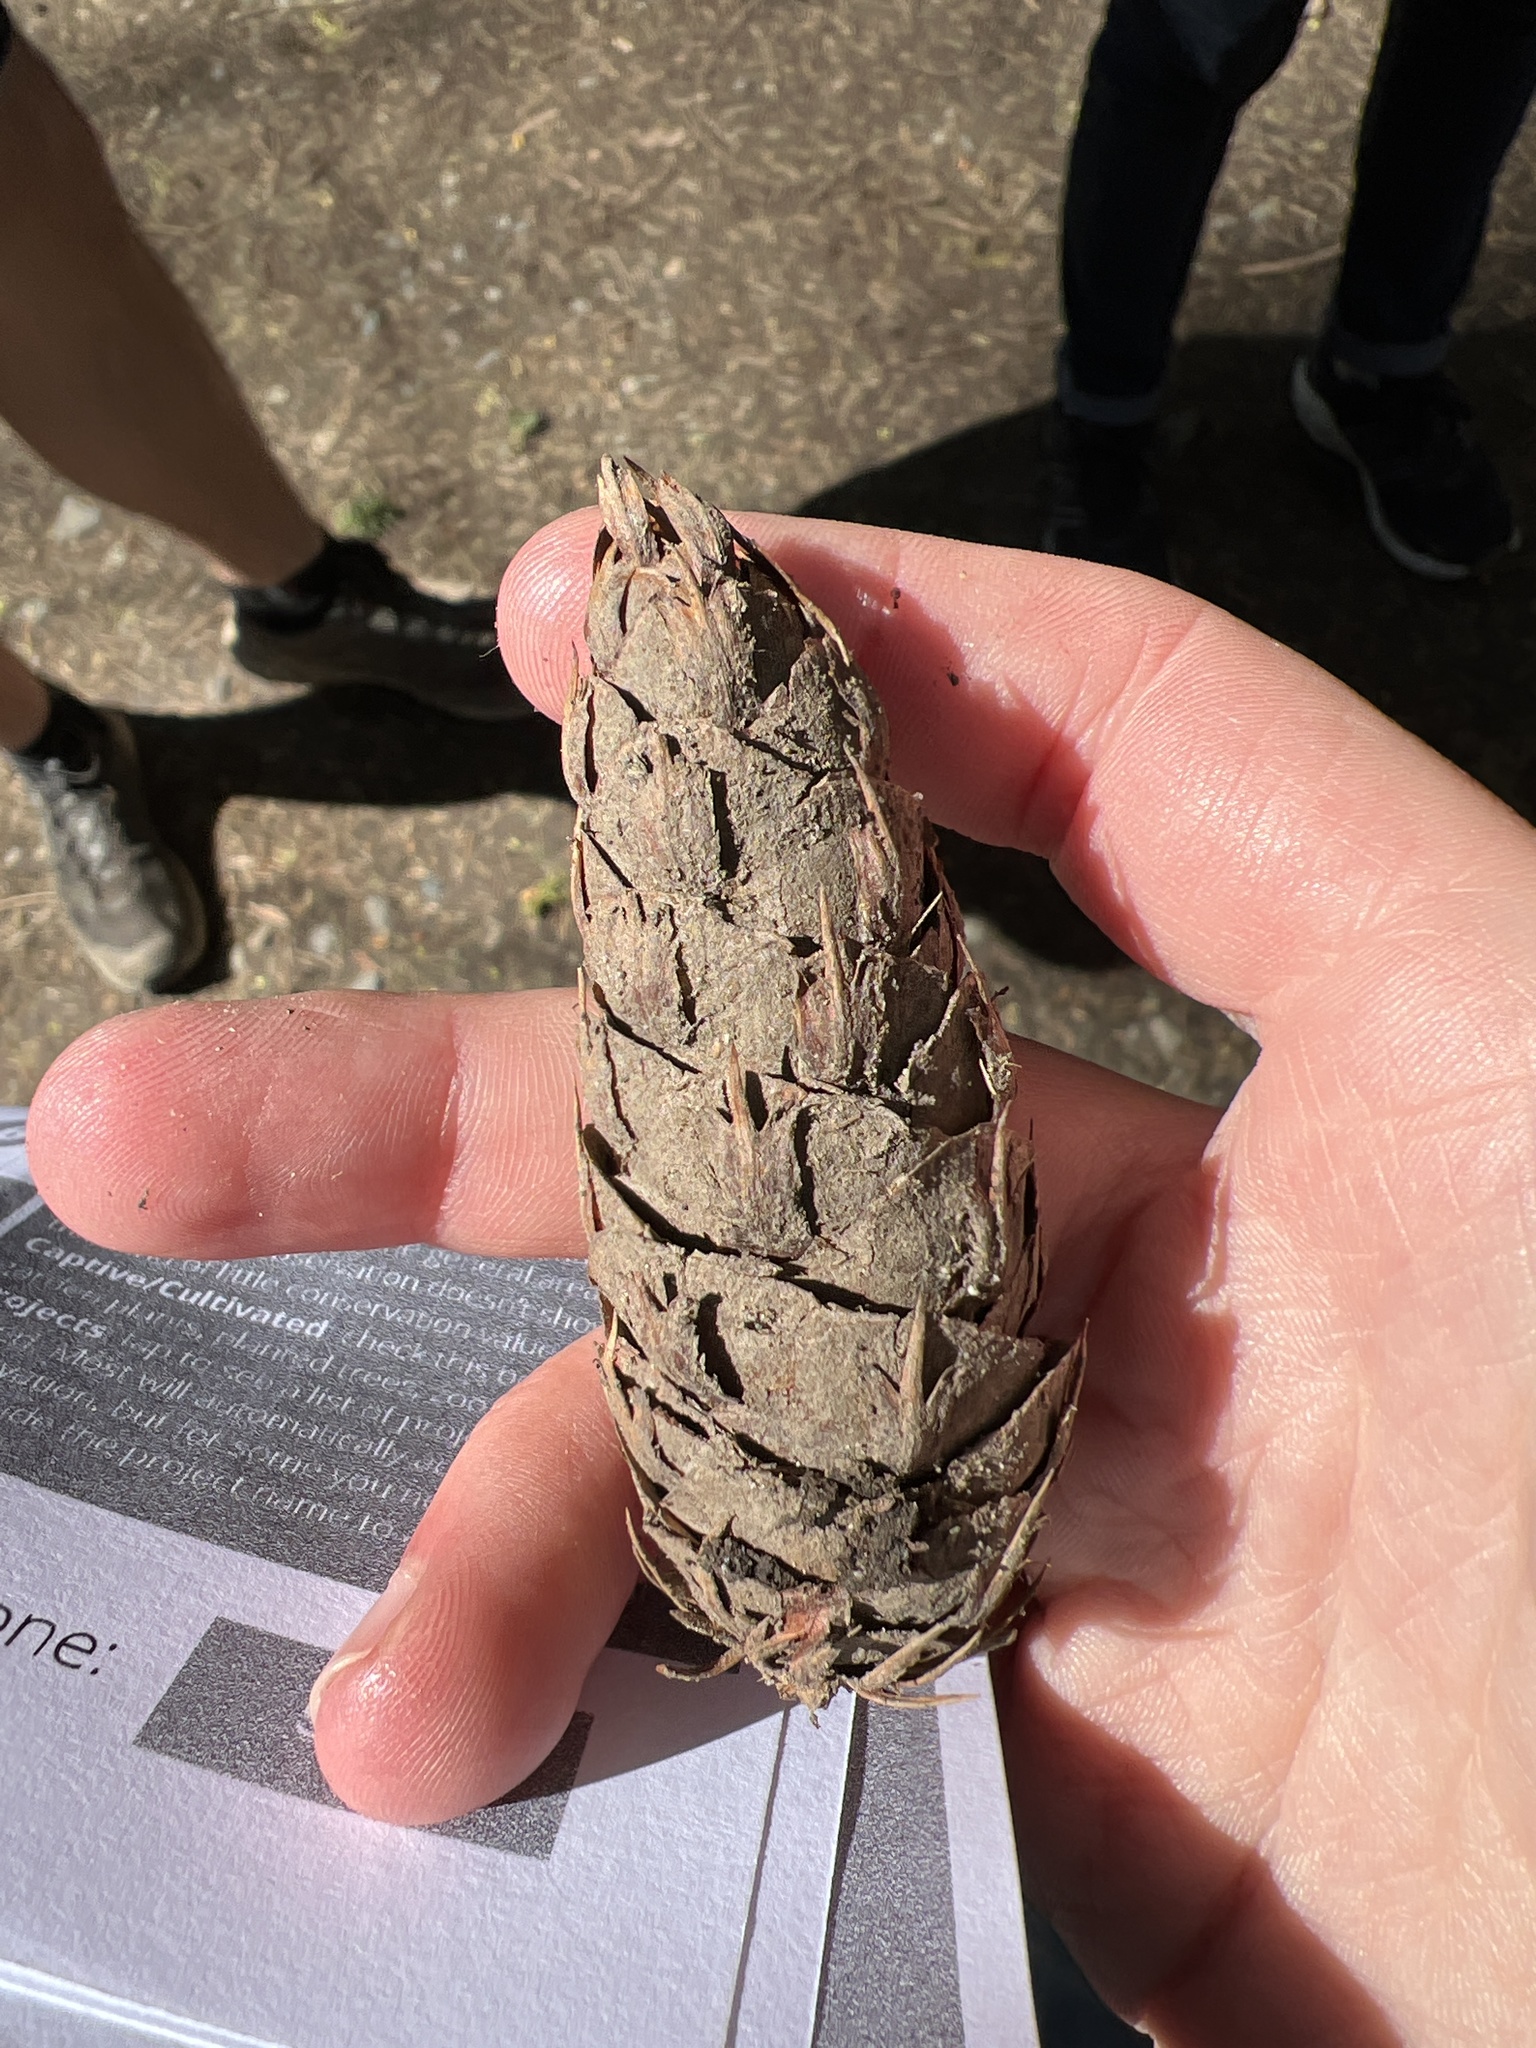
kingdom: Plantae
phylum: Tracheophyta
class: Pinopsida
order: Pinales
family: Pinaceae
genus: Pseudotsuga
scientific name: Pseudotsuga menziesii
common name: Douglas fir
